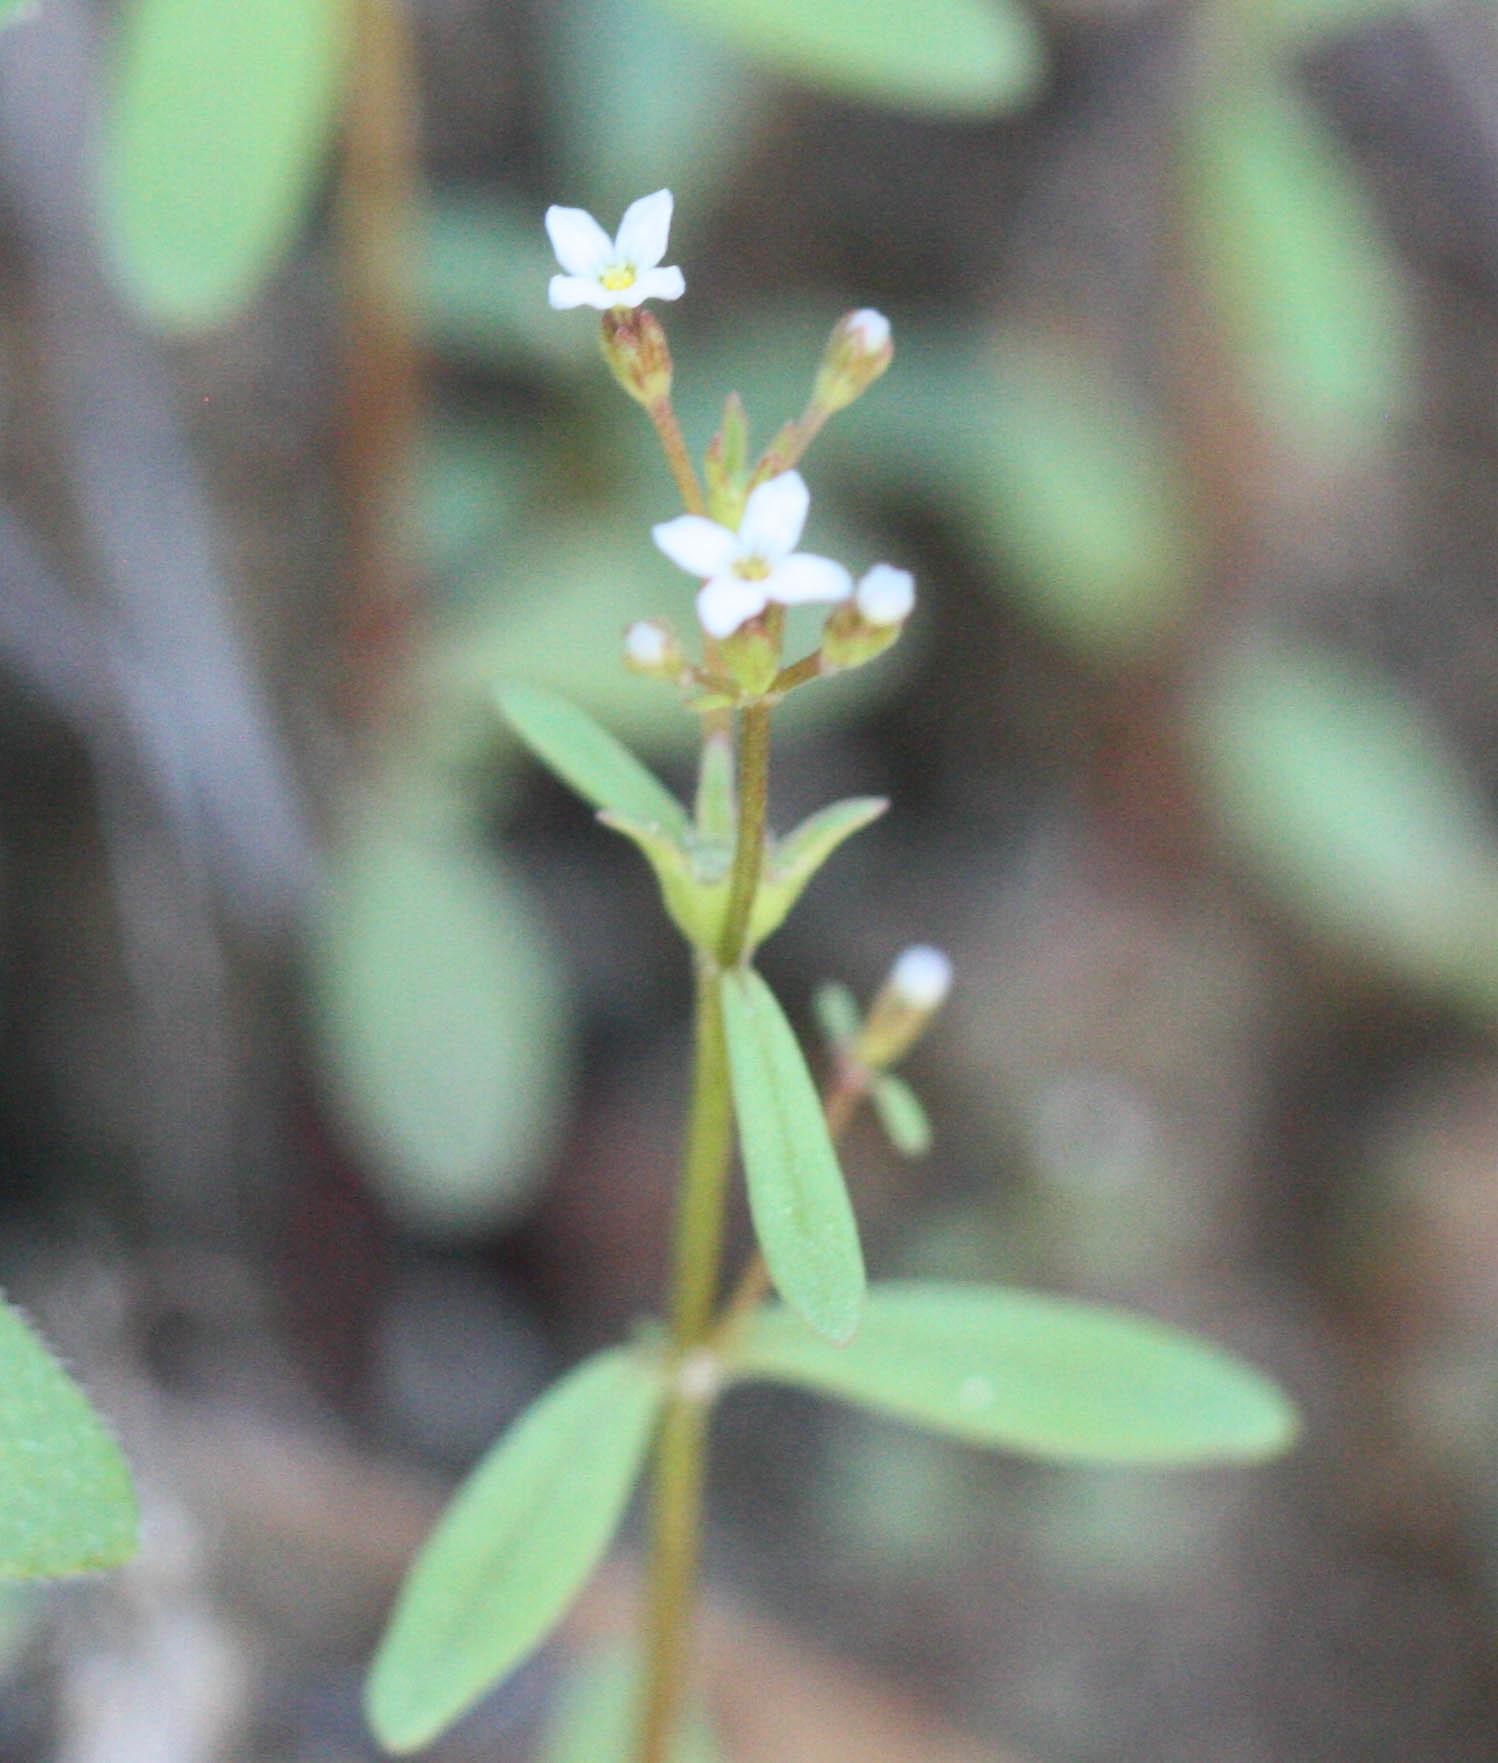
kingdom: Plantae
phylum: Tracheophyta
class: Magnoliopsida
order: Gentianales
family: Rubiaceae
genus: Stenotis
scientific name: Stenotis greenei
